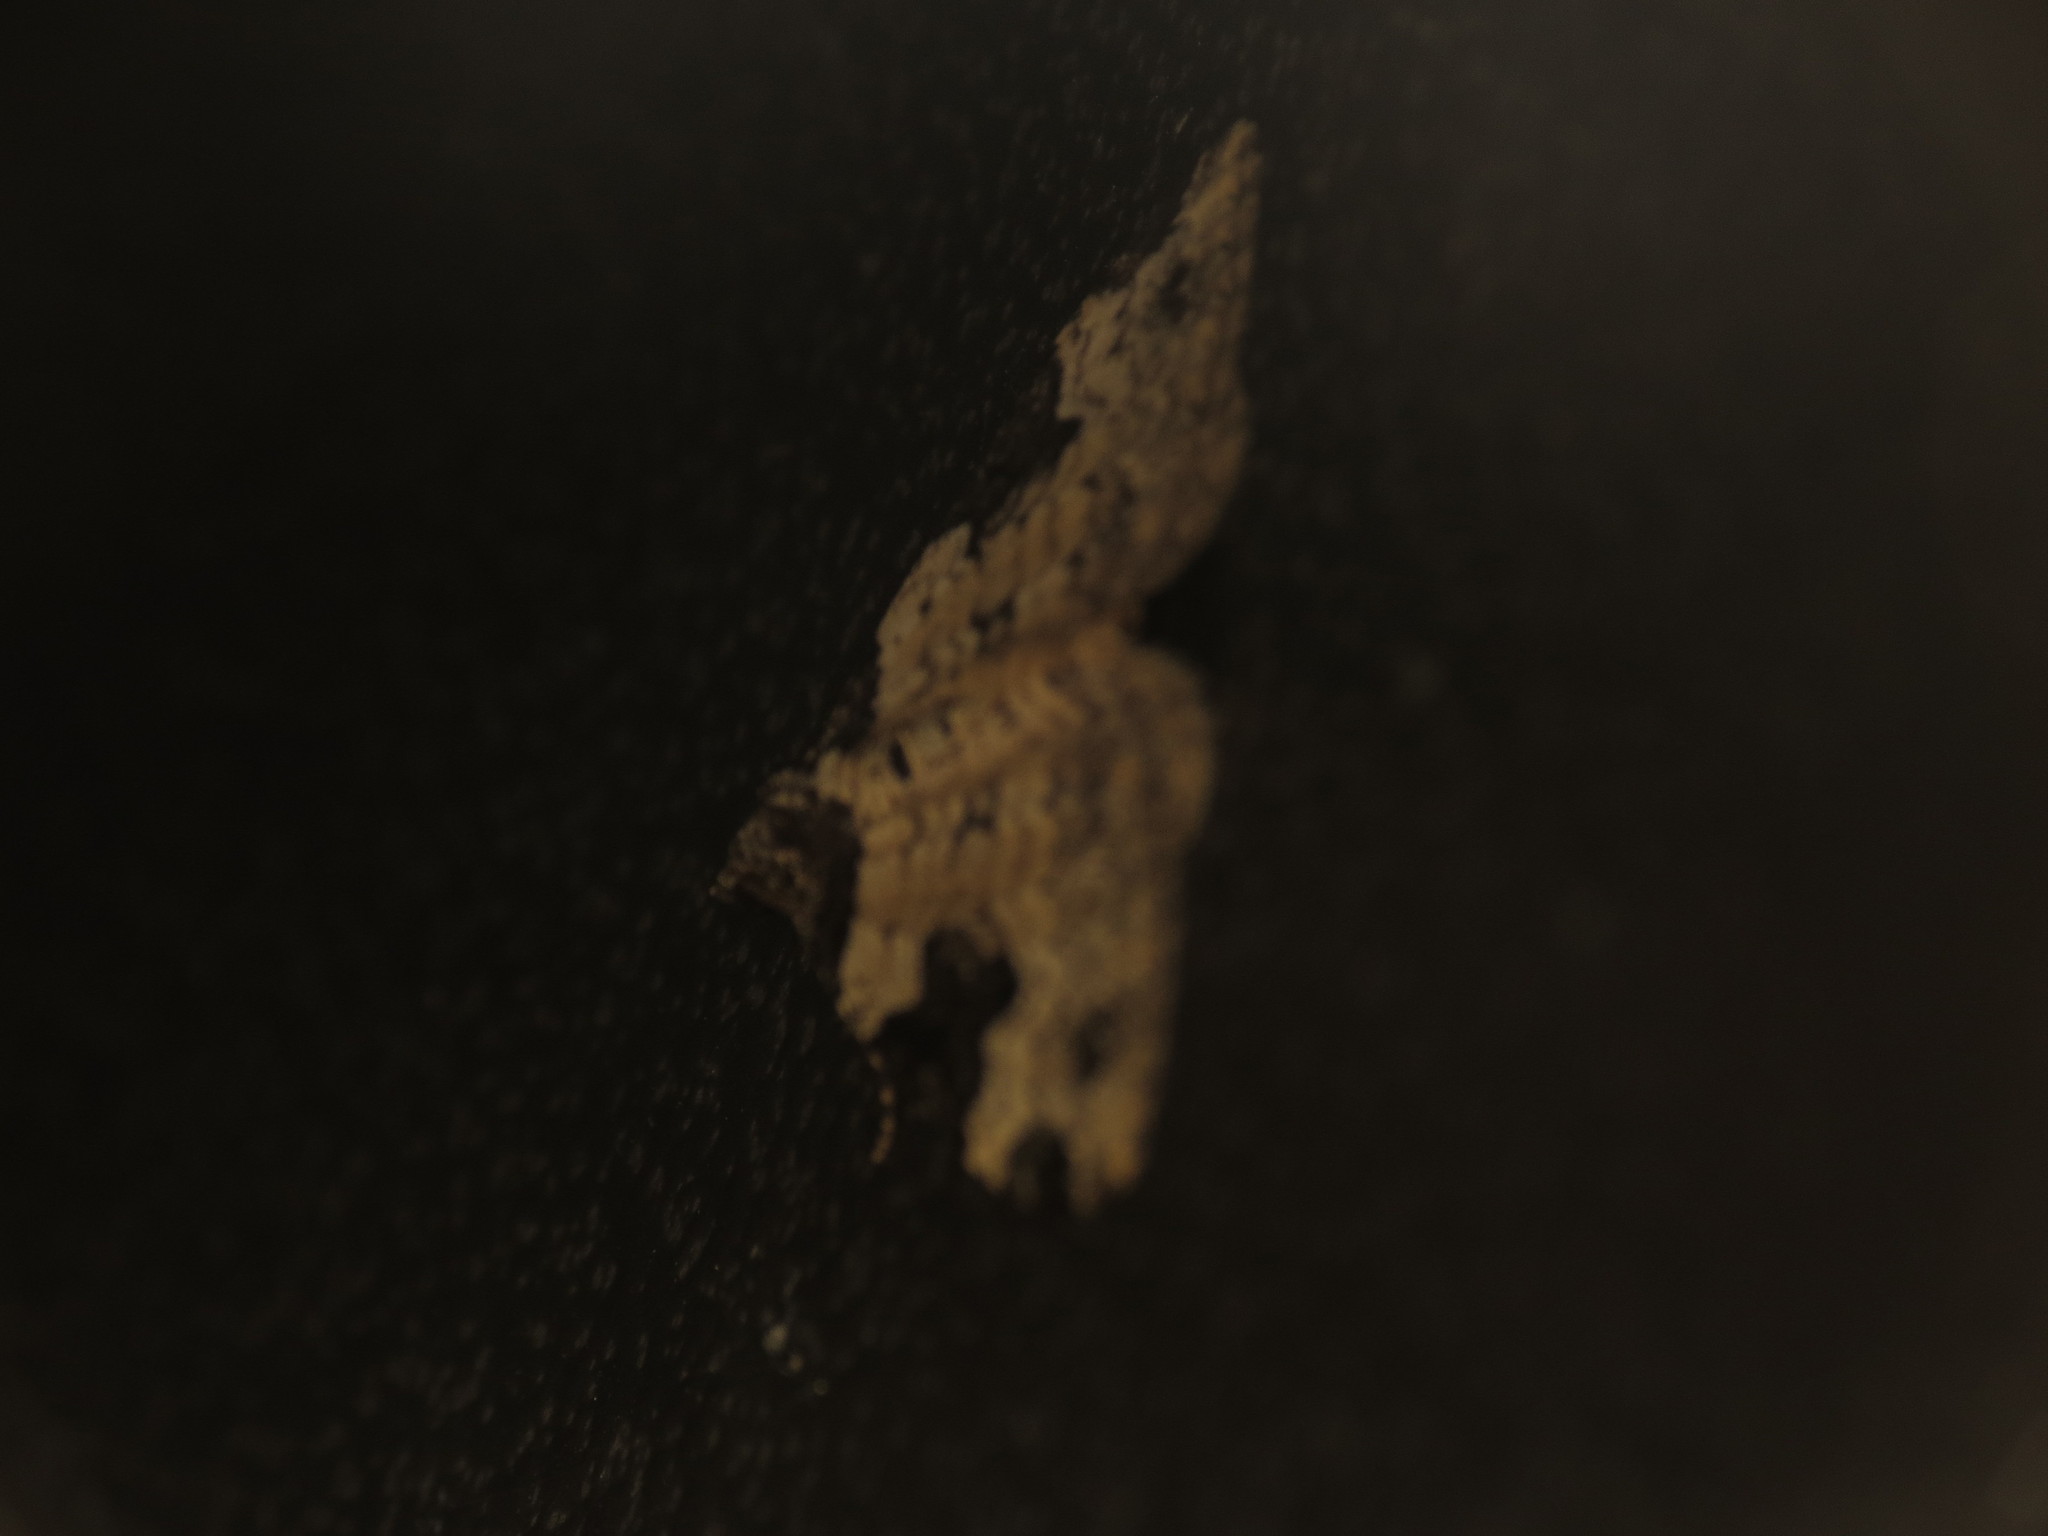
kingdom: Animalia
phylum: Arthropoda
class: Insecta
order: Lepidoptera
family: Geometridae
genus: Xanthorhoe
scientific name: Xanthorhoe fluctuata
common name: Garden carpet
